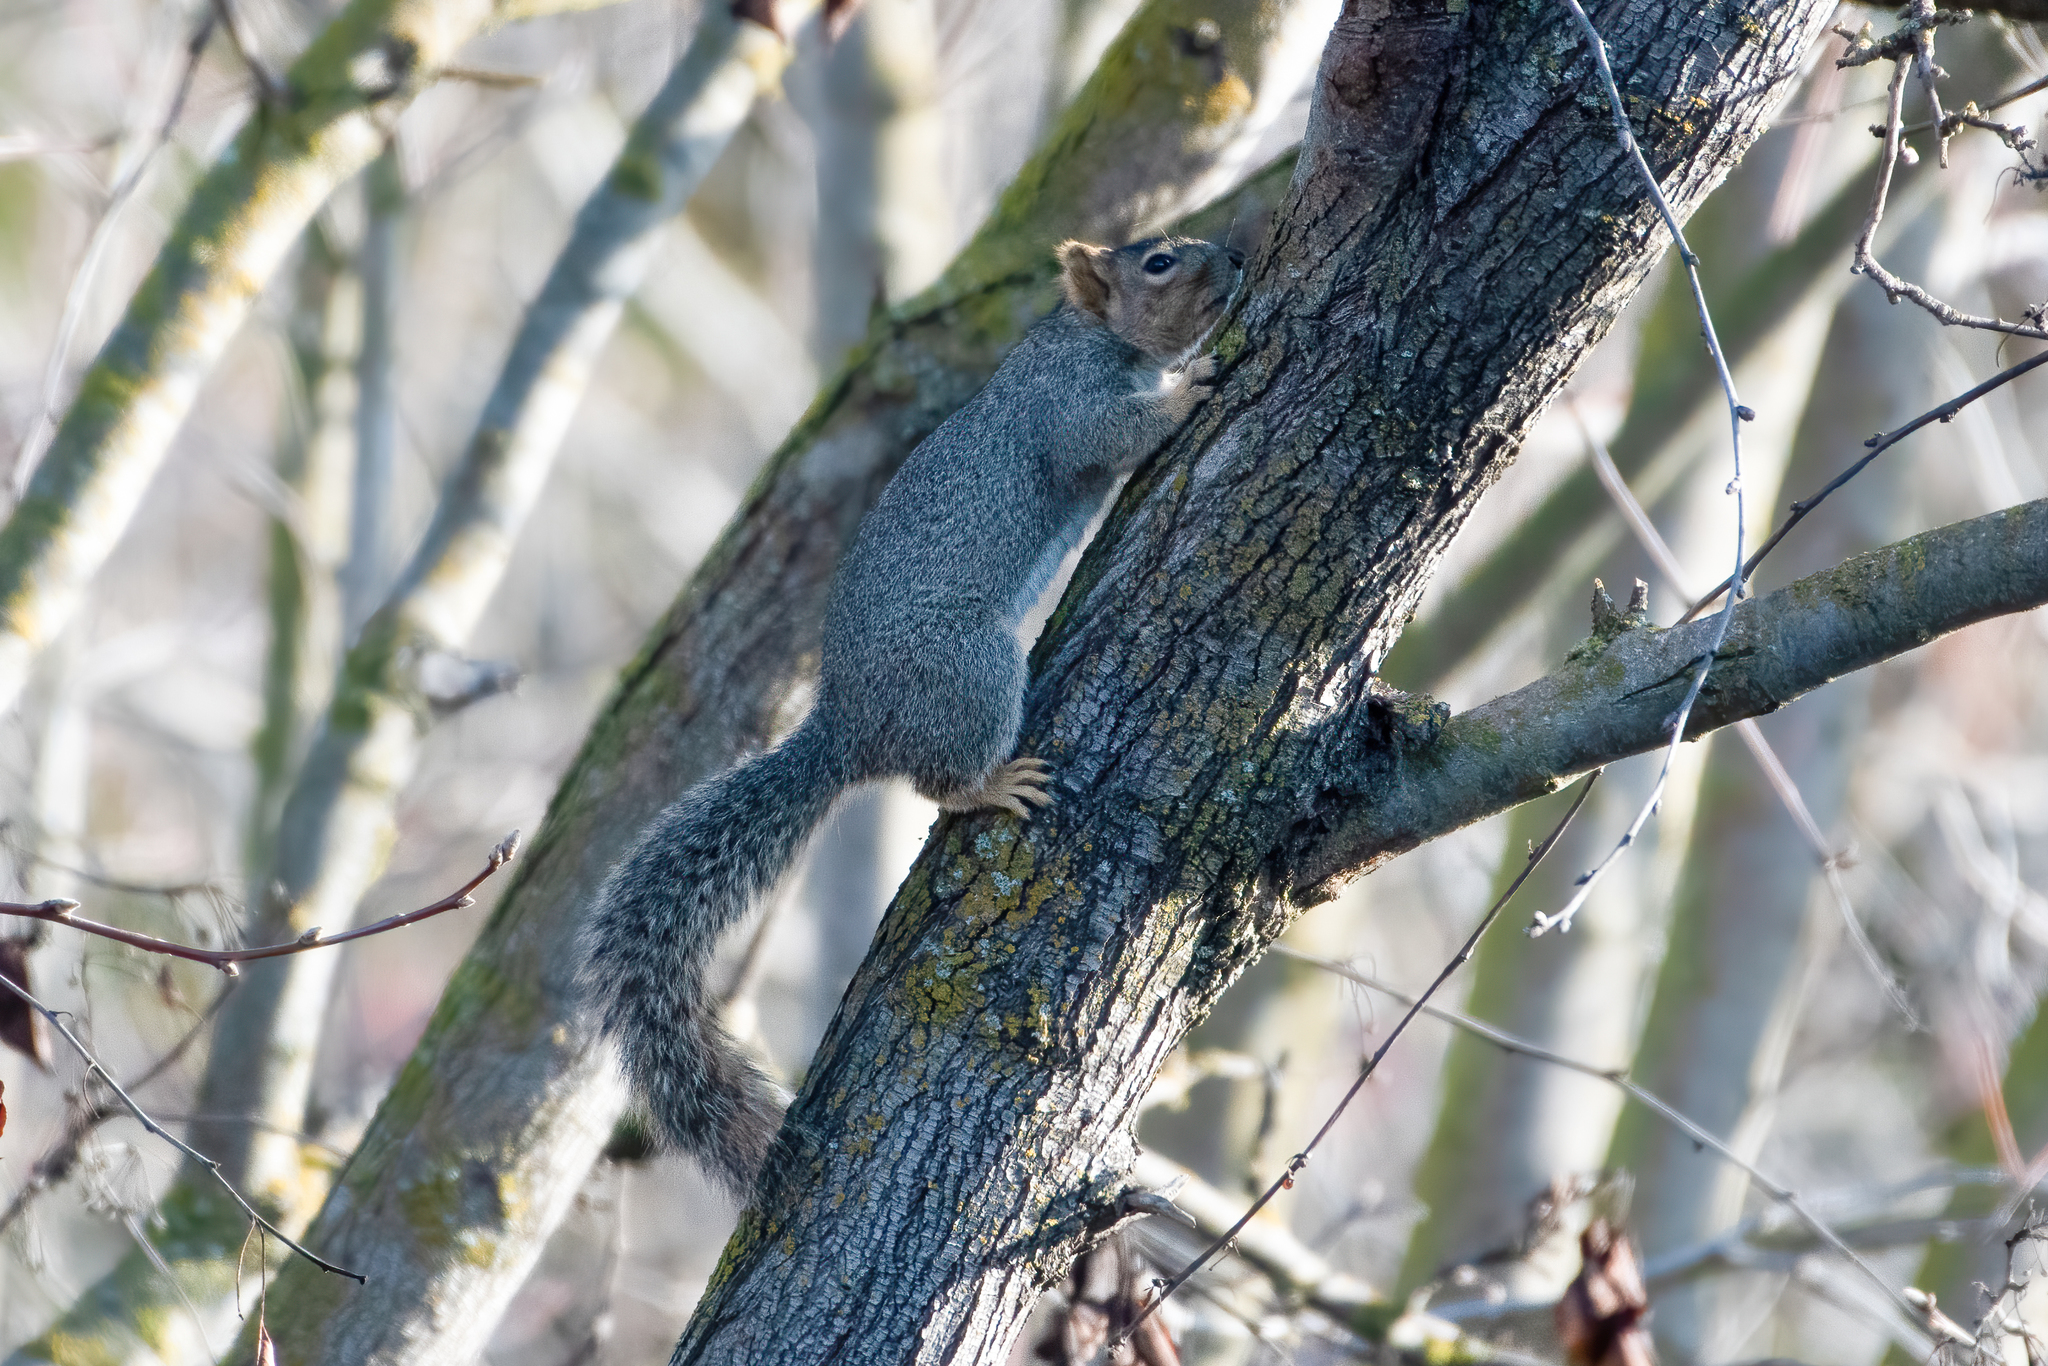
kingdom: Animalia
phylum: Chordata
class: Mammalia
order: Rodentia
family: Sciuridae
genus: Sciurus
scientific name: Sciurus carolinensis
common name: Eastern gray squirrel
